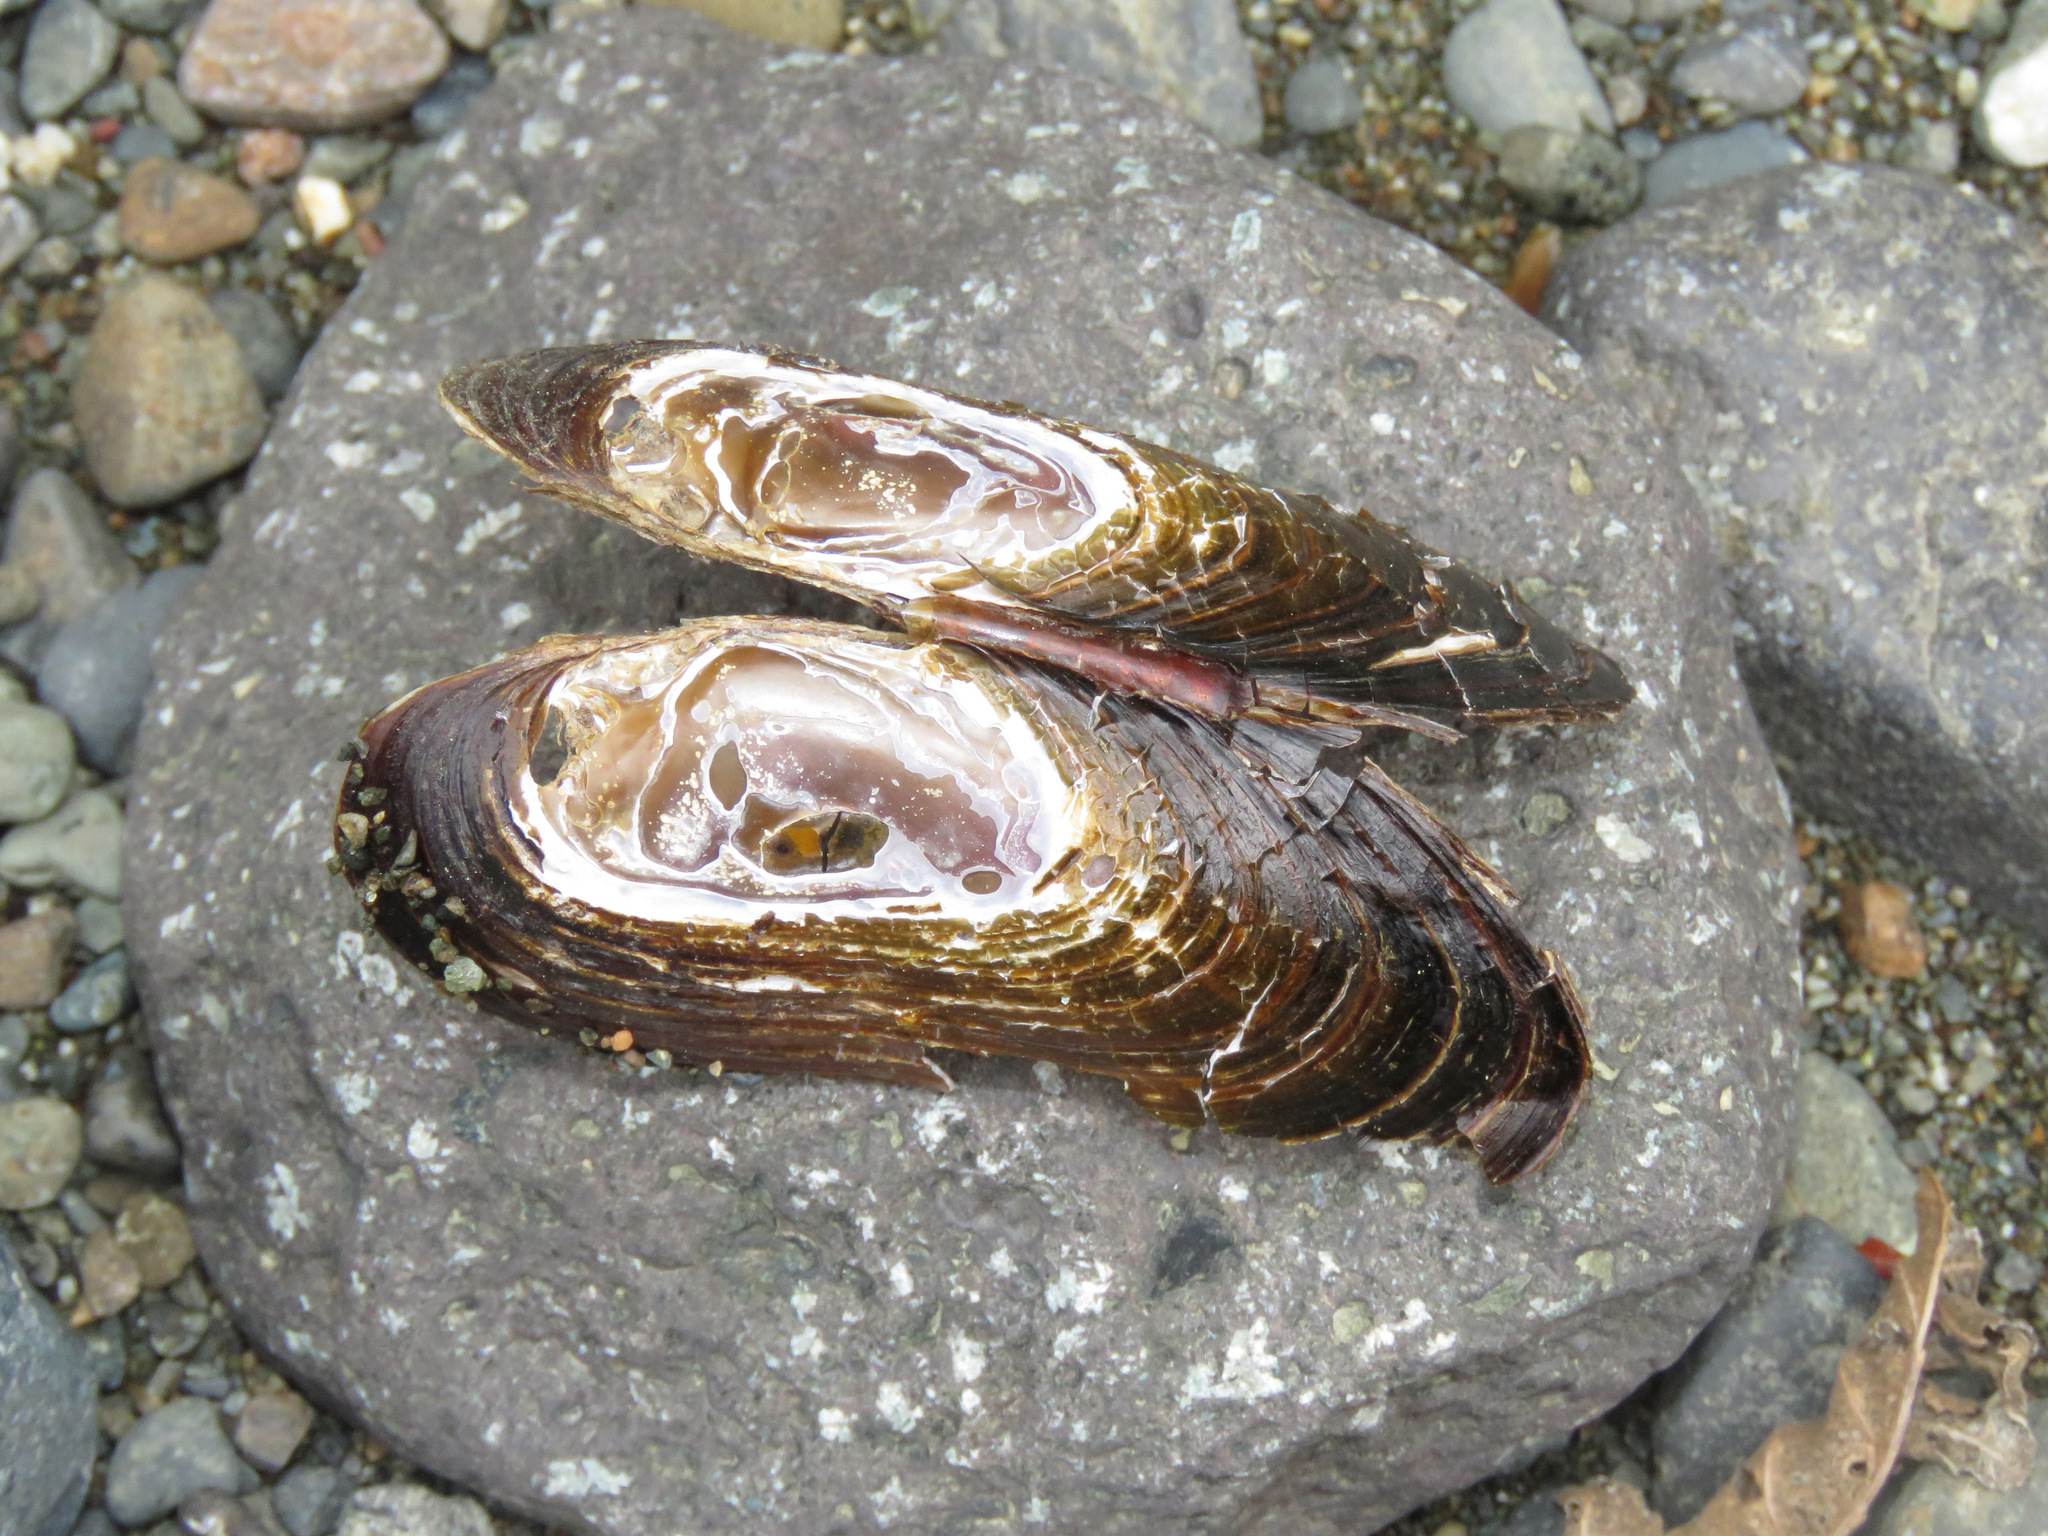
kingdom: Animalia
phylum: Mollusca
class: Bivalvia
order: Unionida
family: Margaritiferidae
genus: Margaritifera
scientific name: Margaritifera falcata
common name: Western pearlshell
